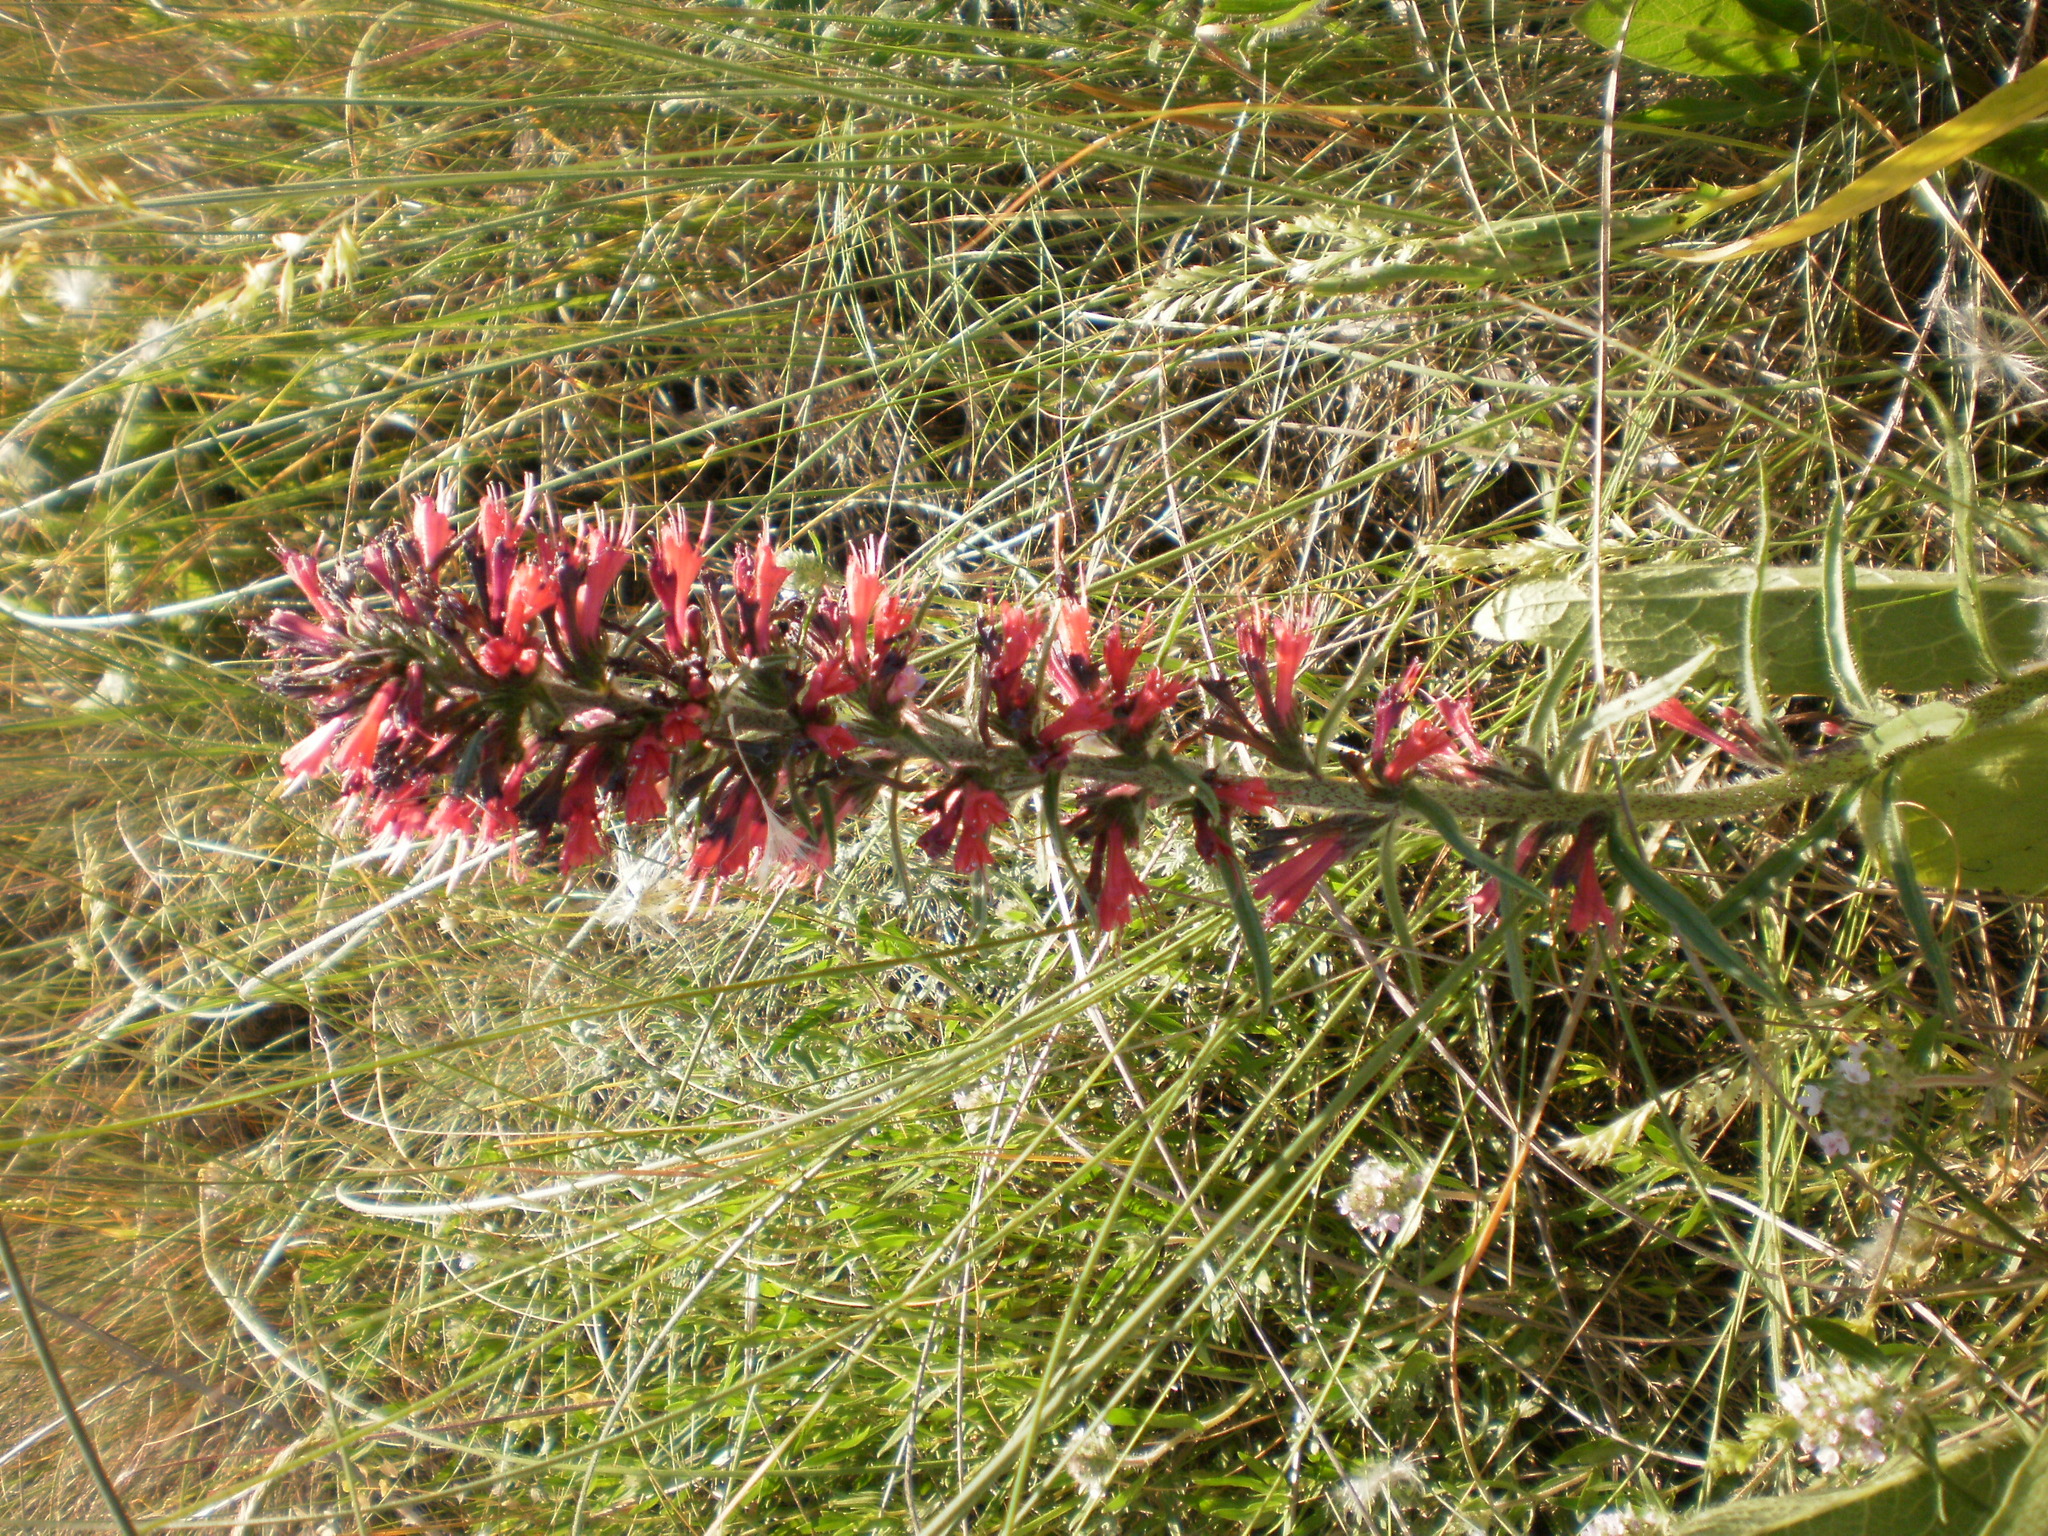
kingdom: Plantae
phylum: Tracheophyta
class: Magnoliopsida
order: Boraginales
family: Boraginaceae
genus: Pontechium
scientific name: Pontechium maculatum
